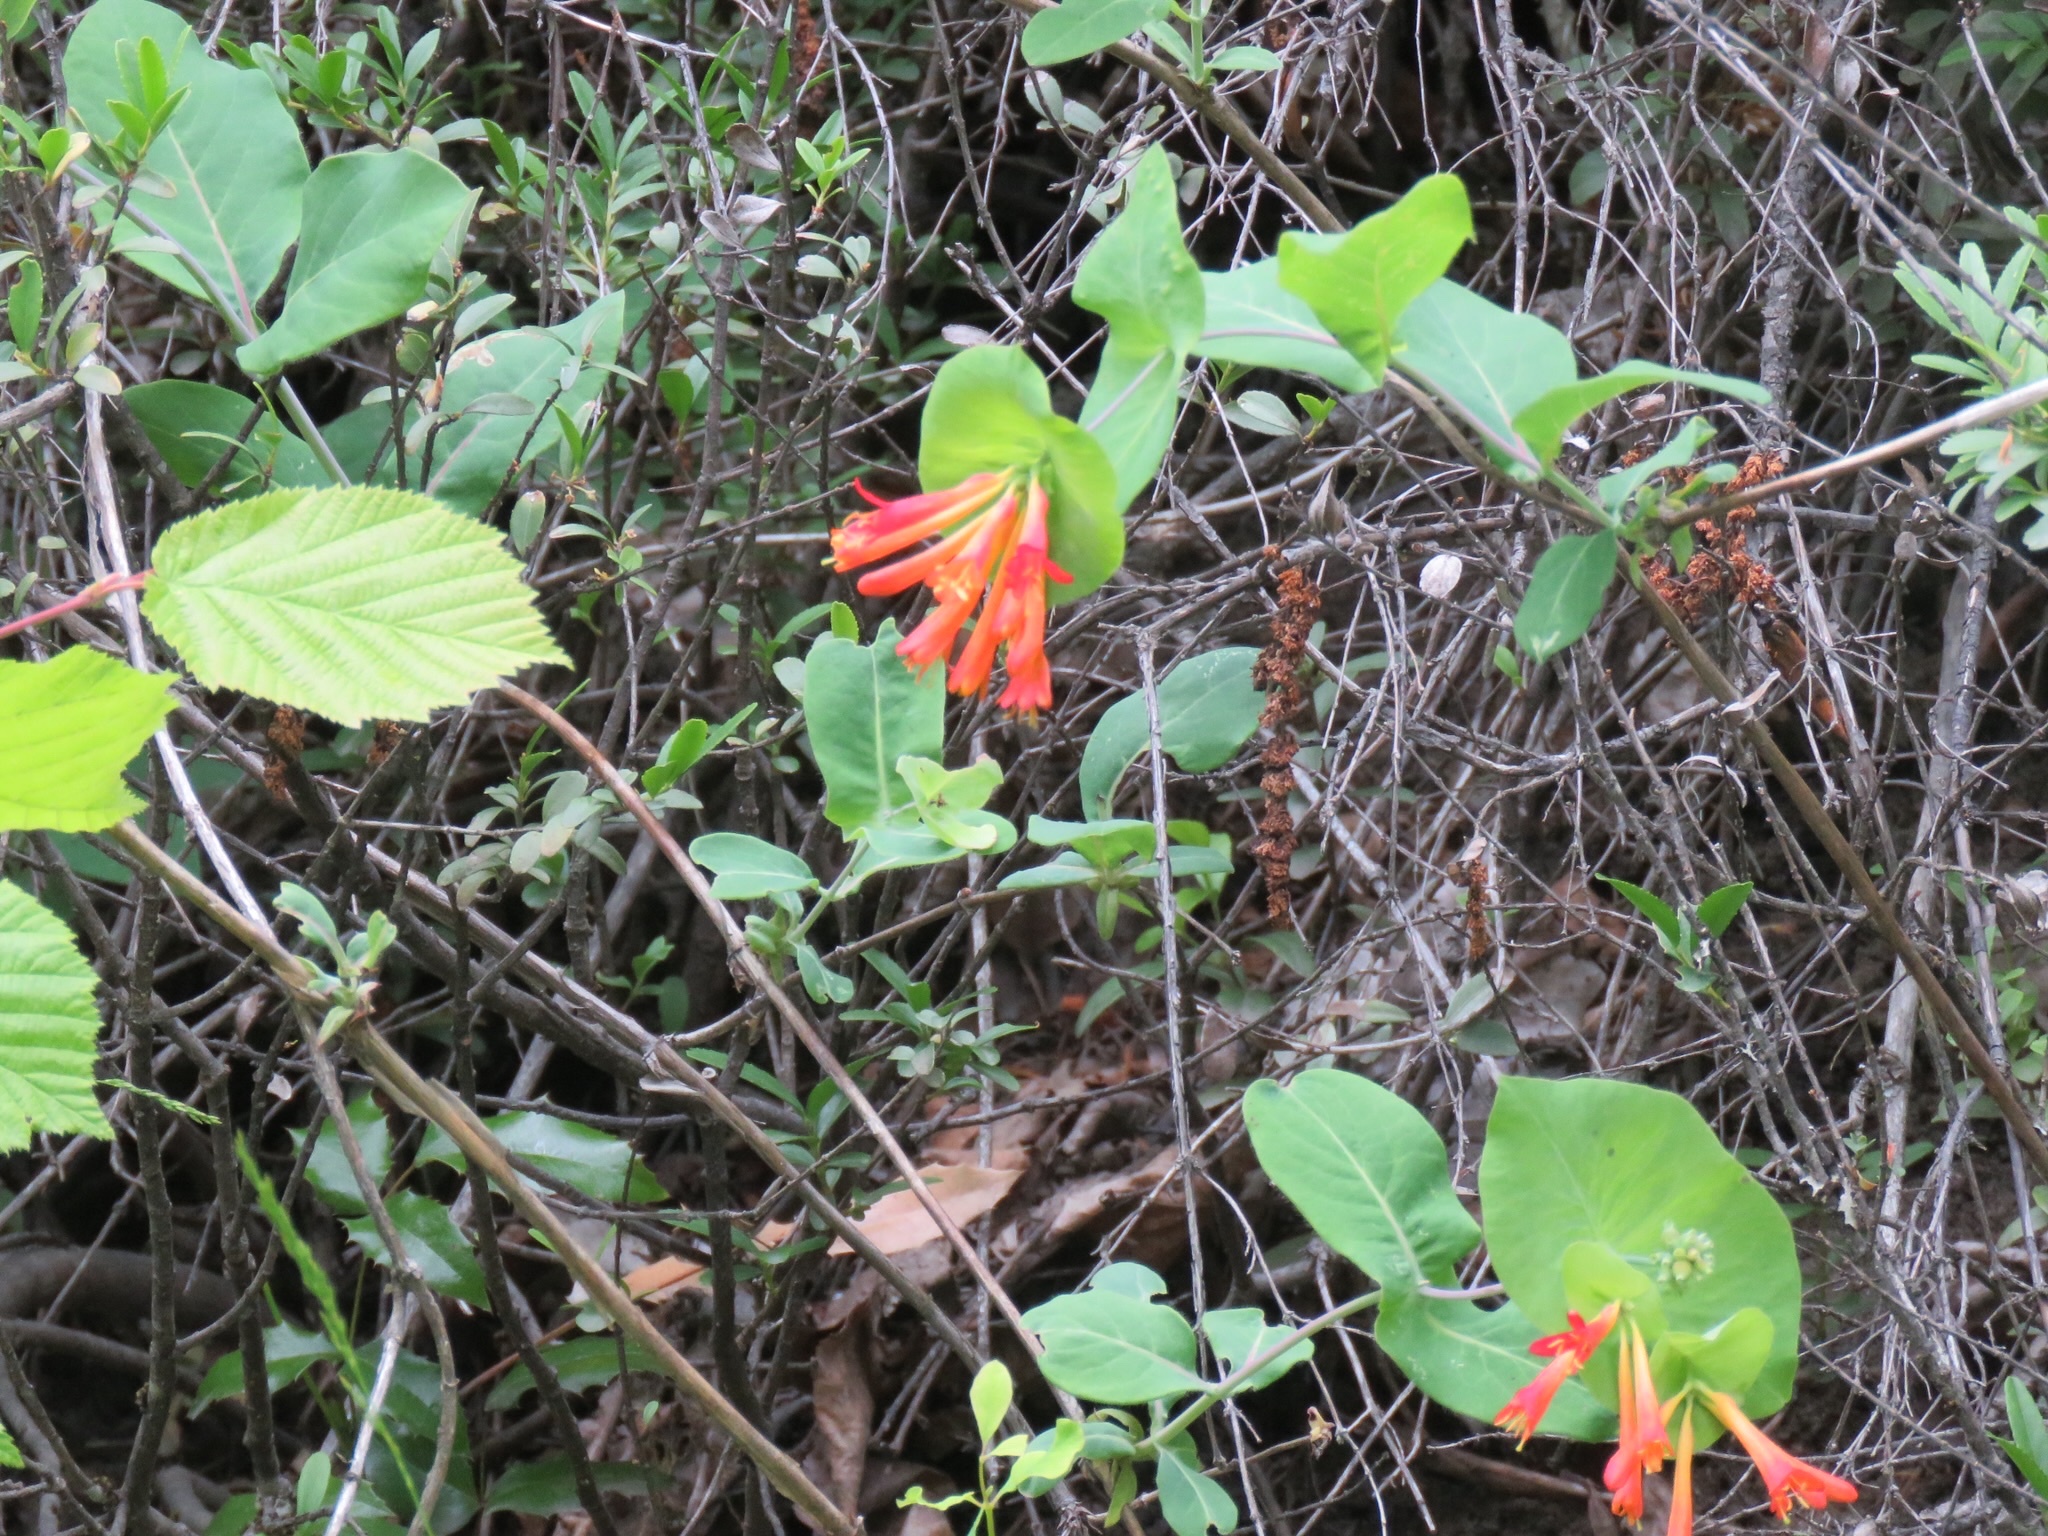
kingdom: Plantae
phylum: Tracheophyta
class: Magnoliopsida
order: Dipsacales
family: Caprifoliaceae
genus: Lonicera
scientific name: Lonicera ciliosa
